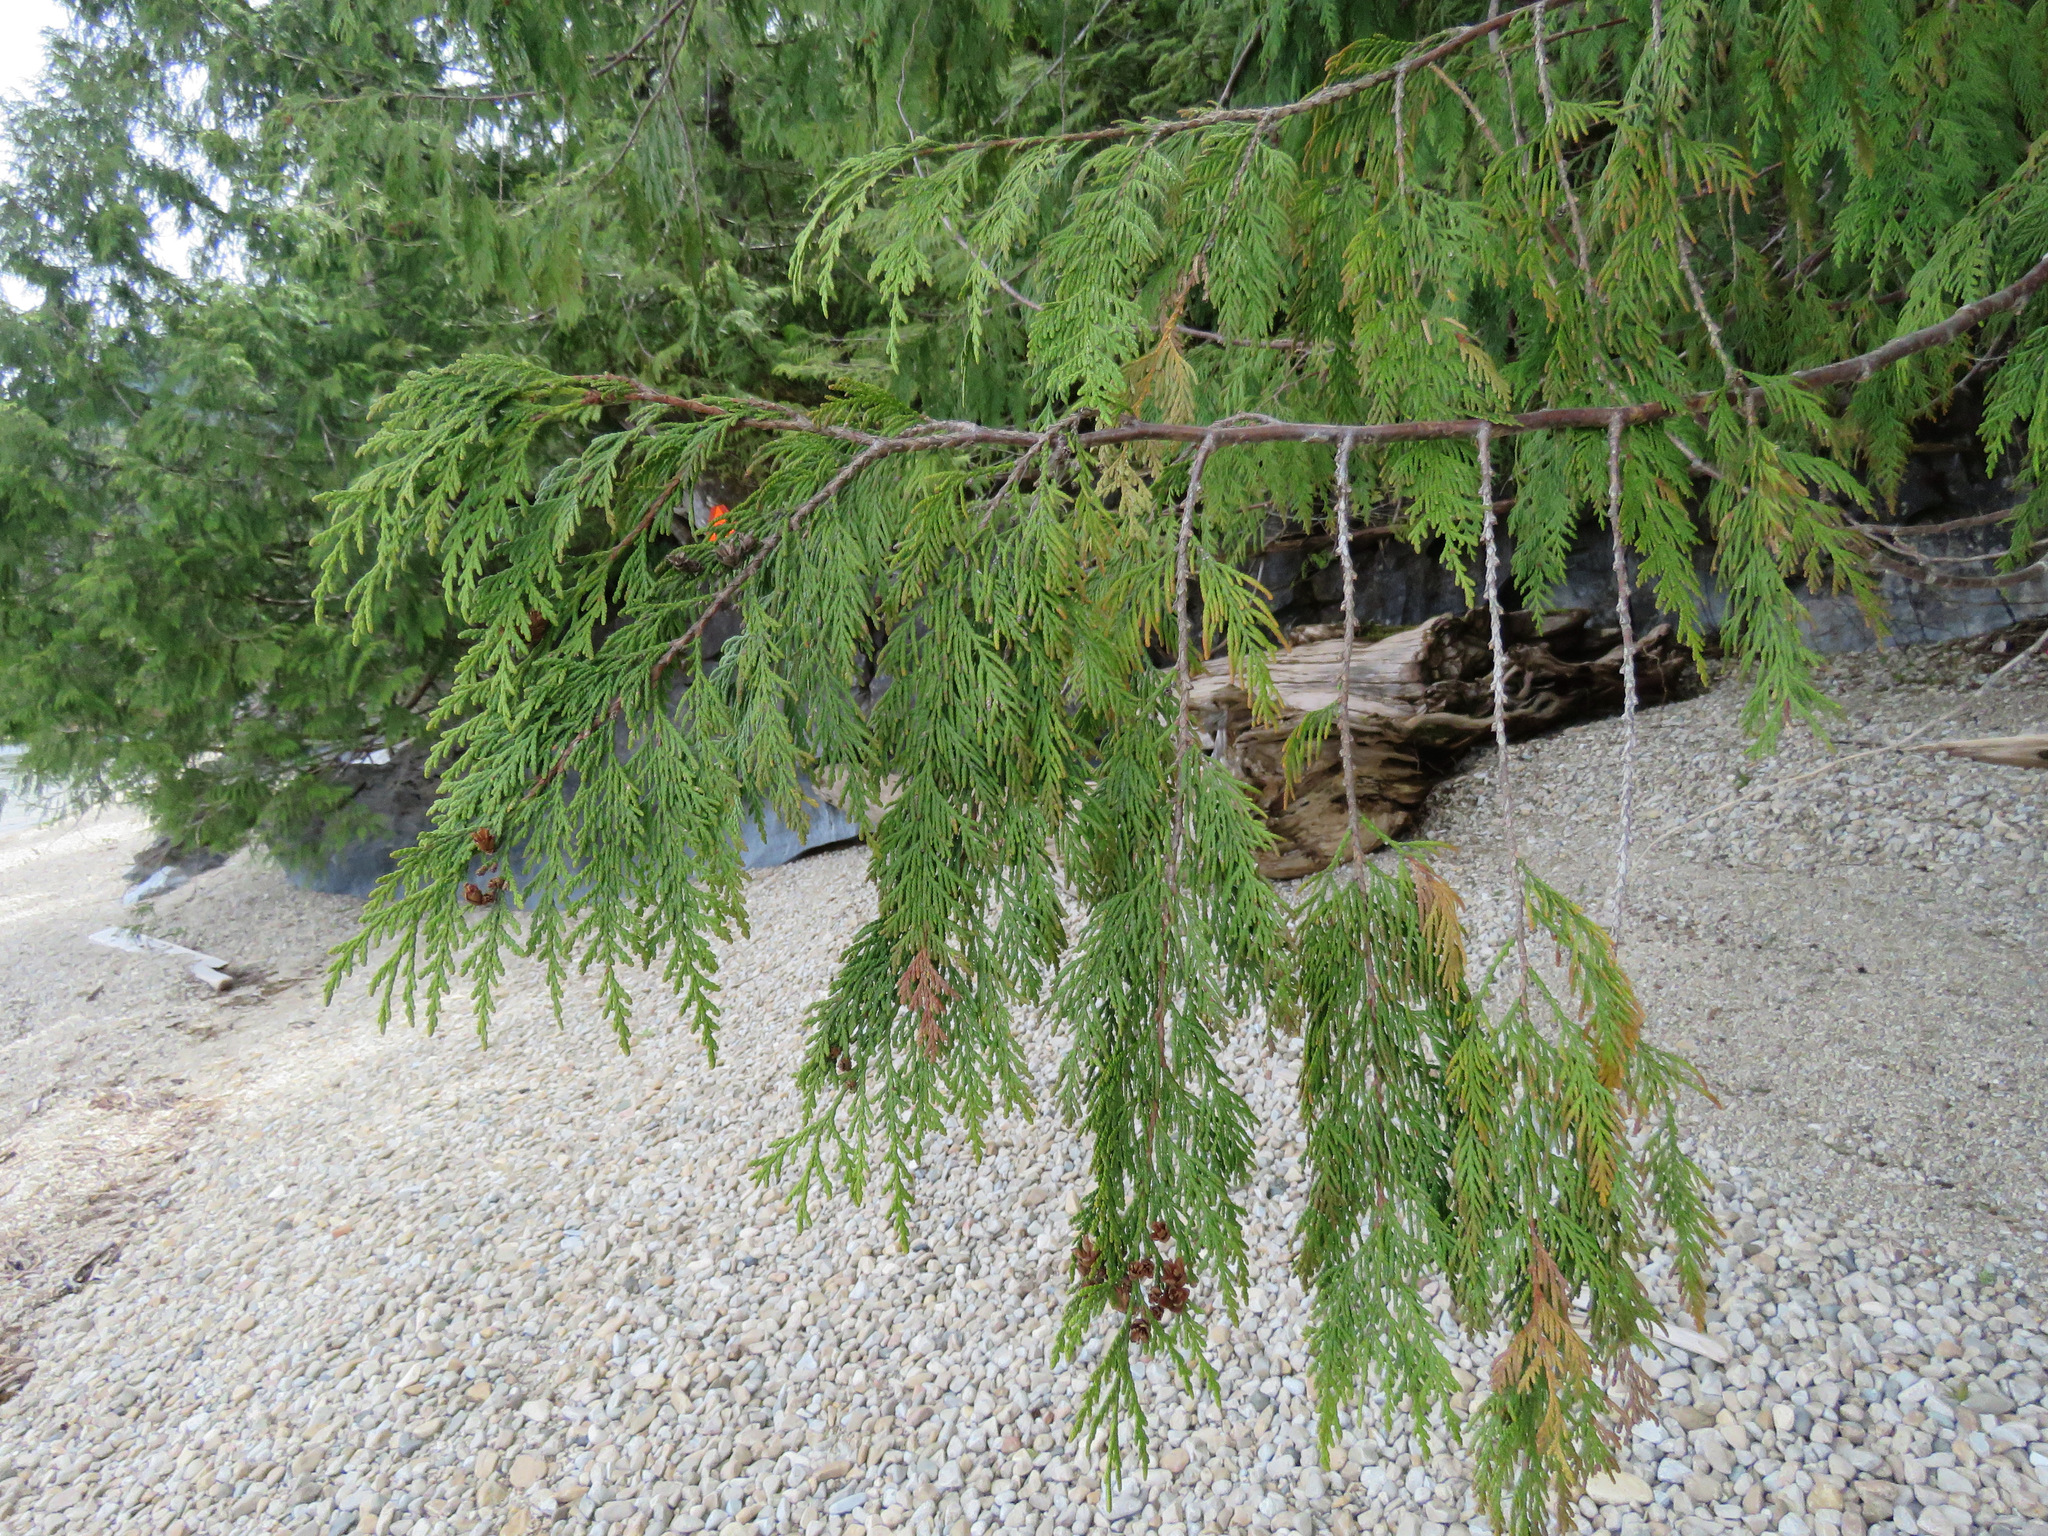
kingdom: Plantae
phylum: Tracheophyta
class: Pinopsida
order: Pinales
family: Cupressaceae
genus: Thuja
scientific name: Thuja plicata
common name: Western red-cedar
